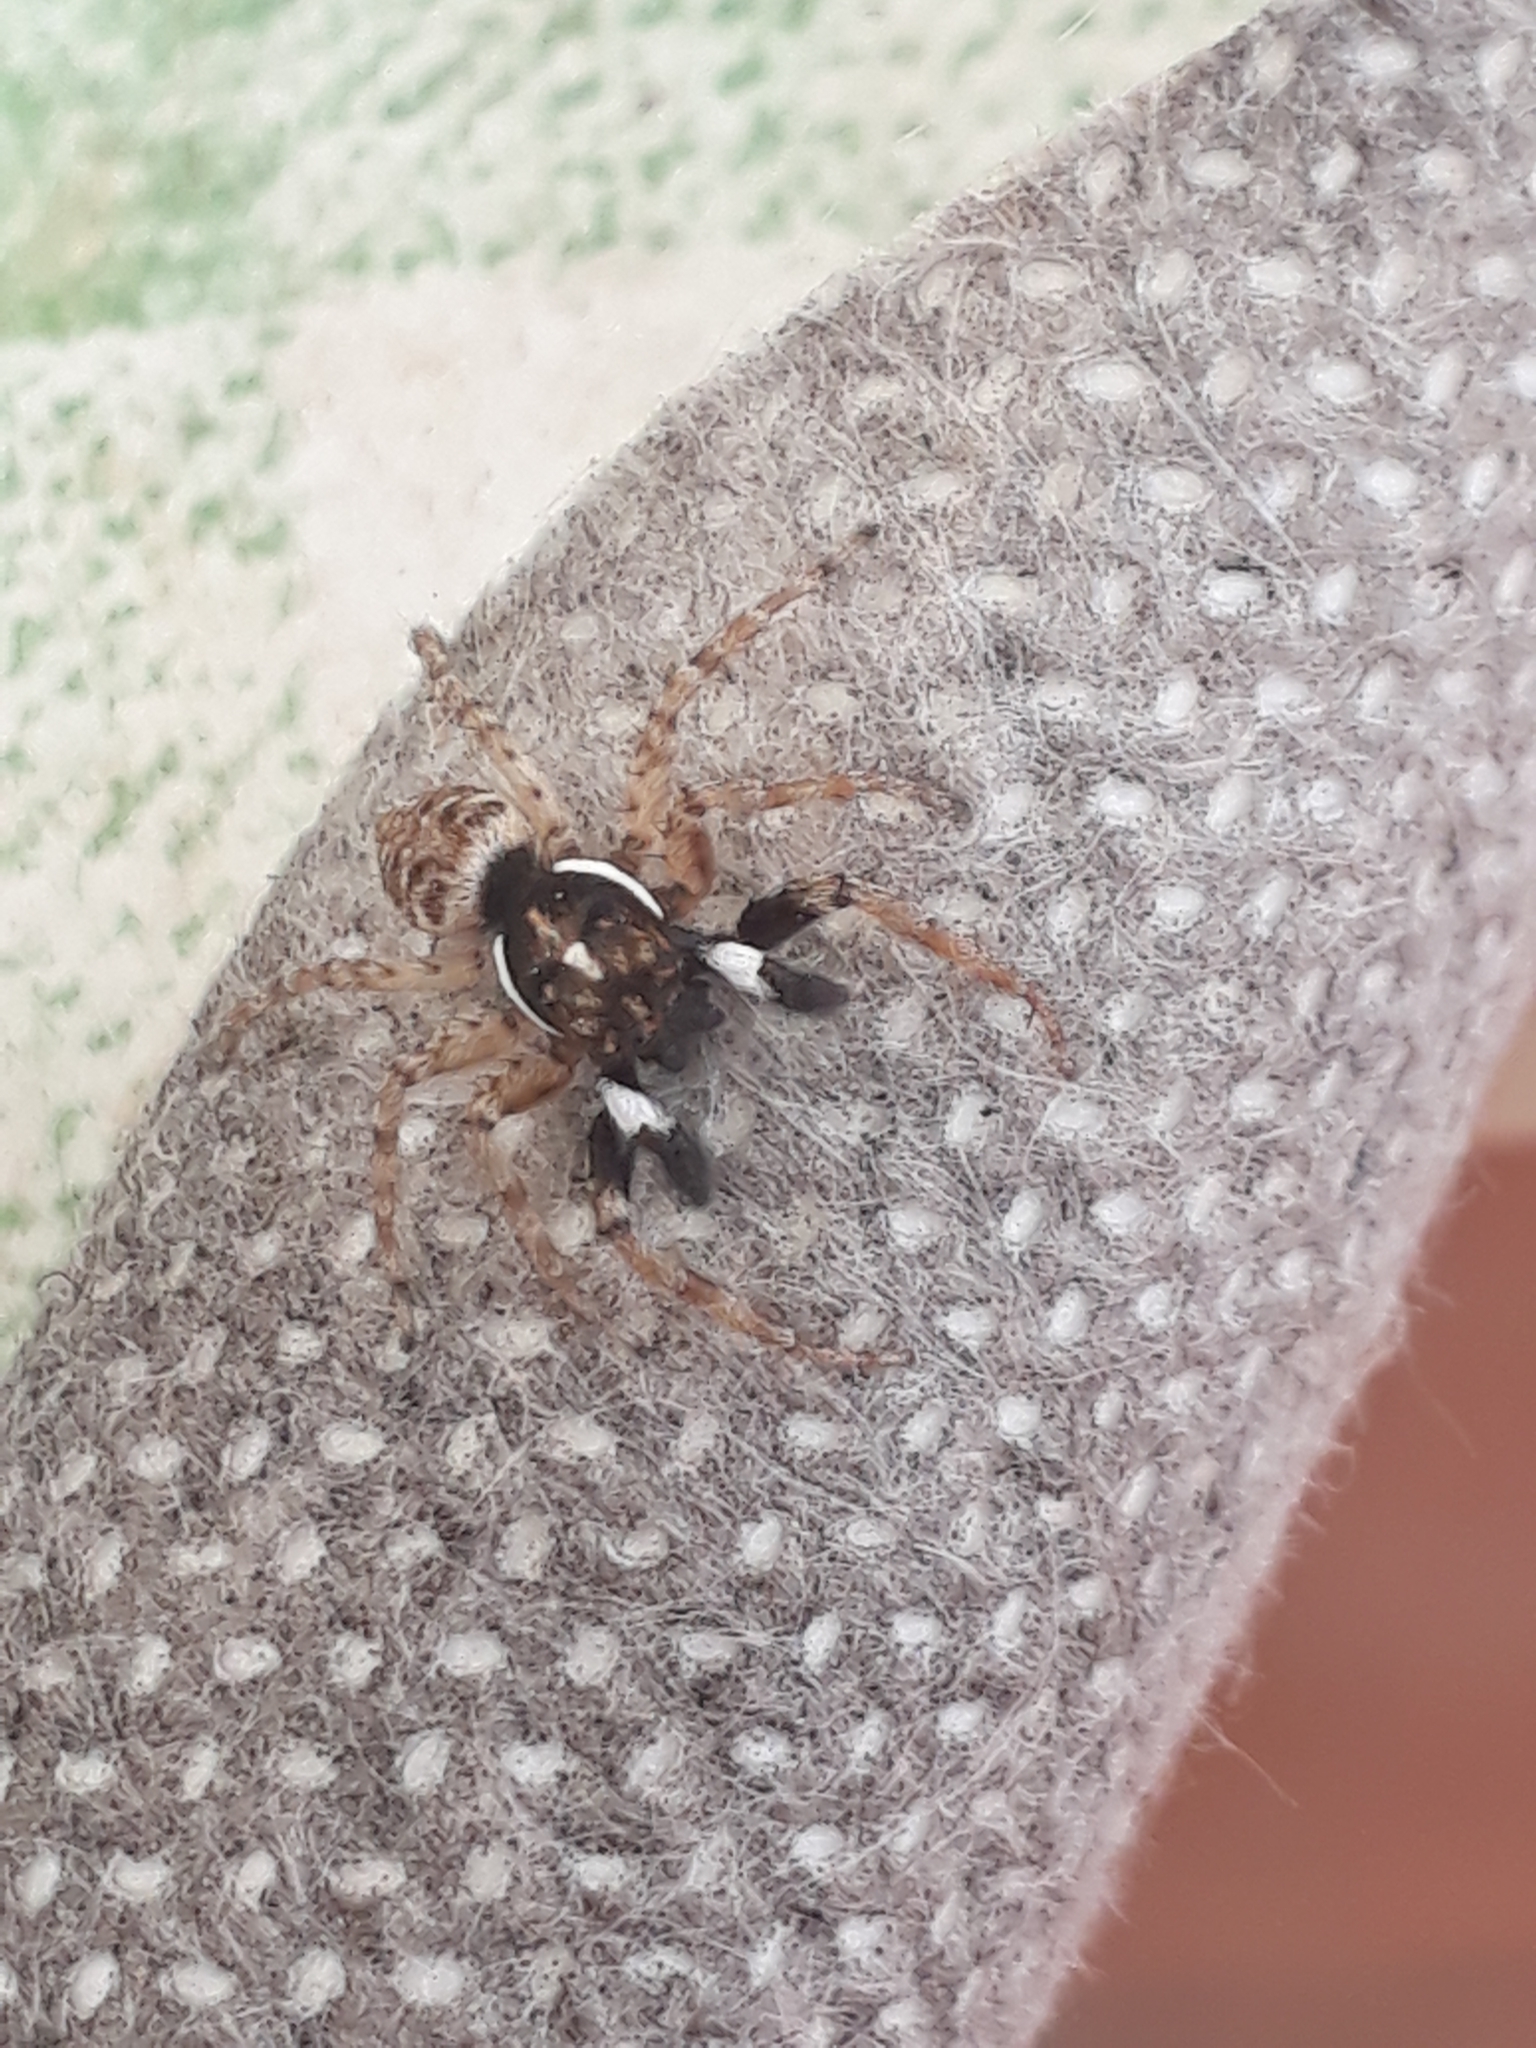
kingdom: Animalia
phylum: Arthropoda
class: Arachnida
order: Araneae
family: Salticidae
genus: Menemerus
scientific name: Menemerus semilimbatus
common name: Jumping spider
